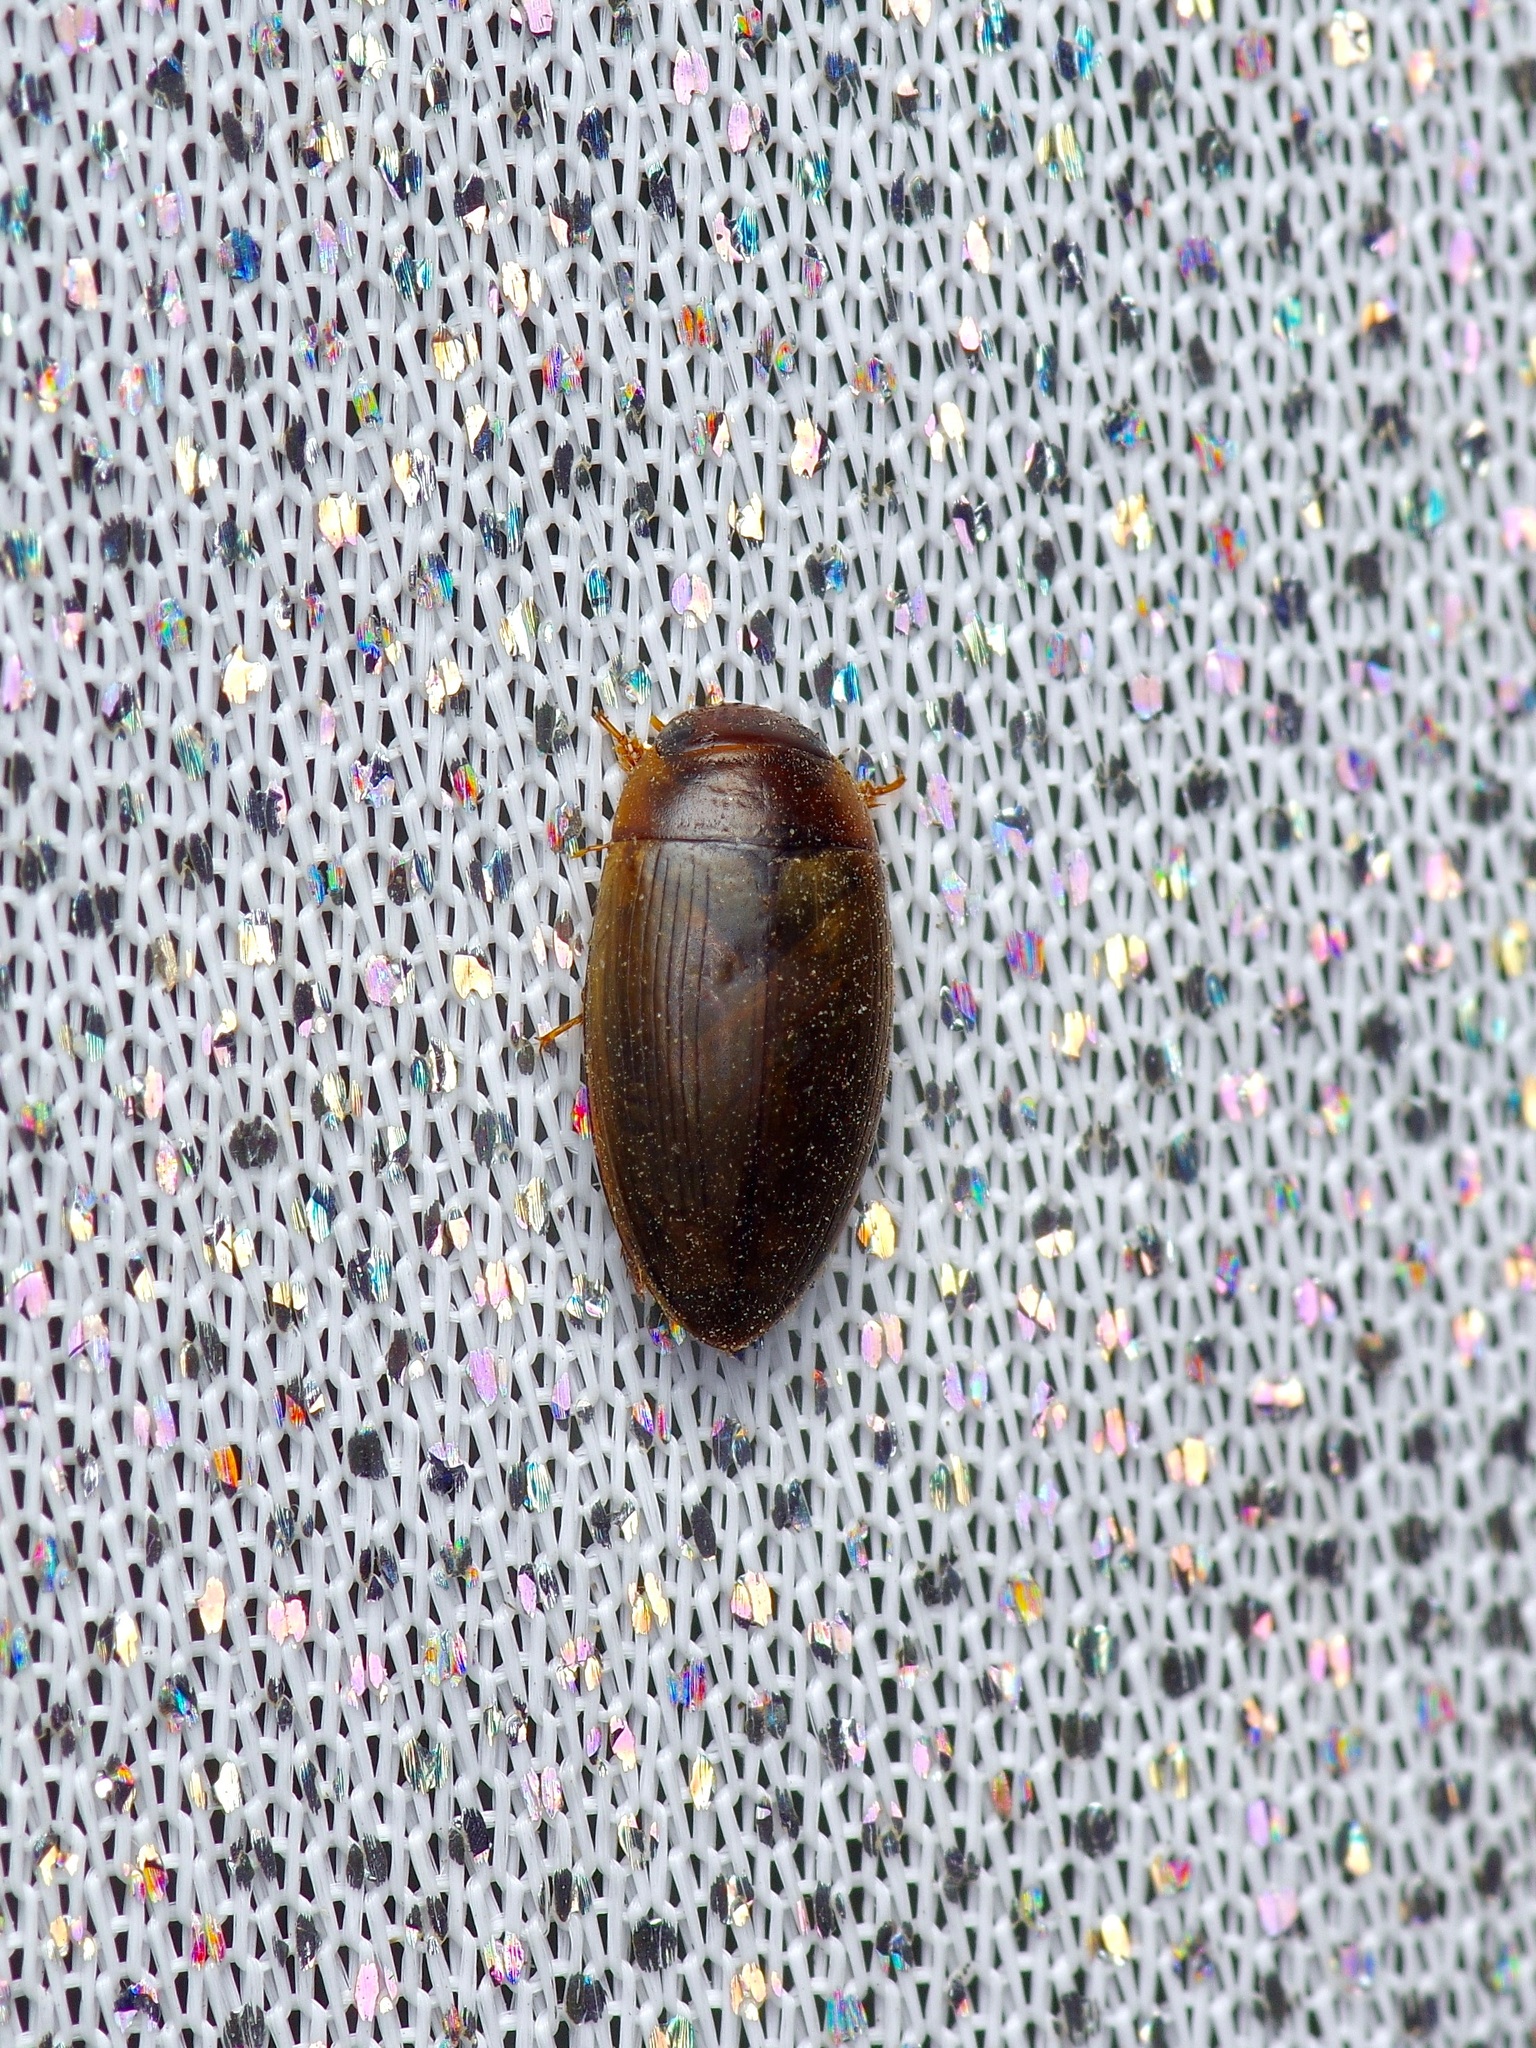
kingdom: Animalia
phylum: Arthropoda
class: Insecta
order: Coleoptera
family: Dytiscidae
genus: Copelatus
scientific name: Copelatus chevrolati
